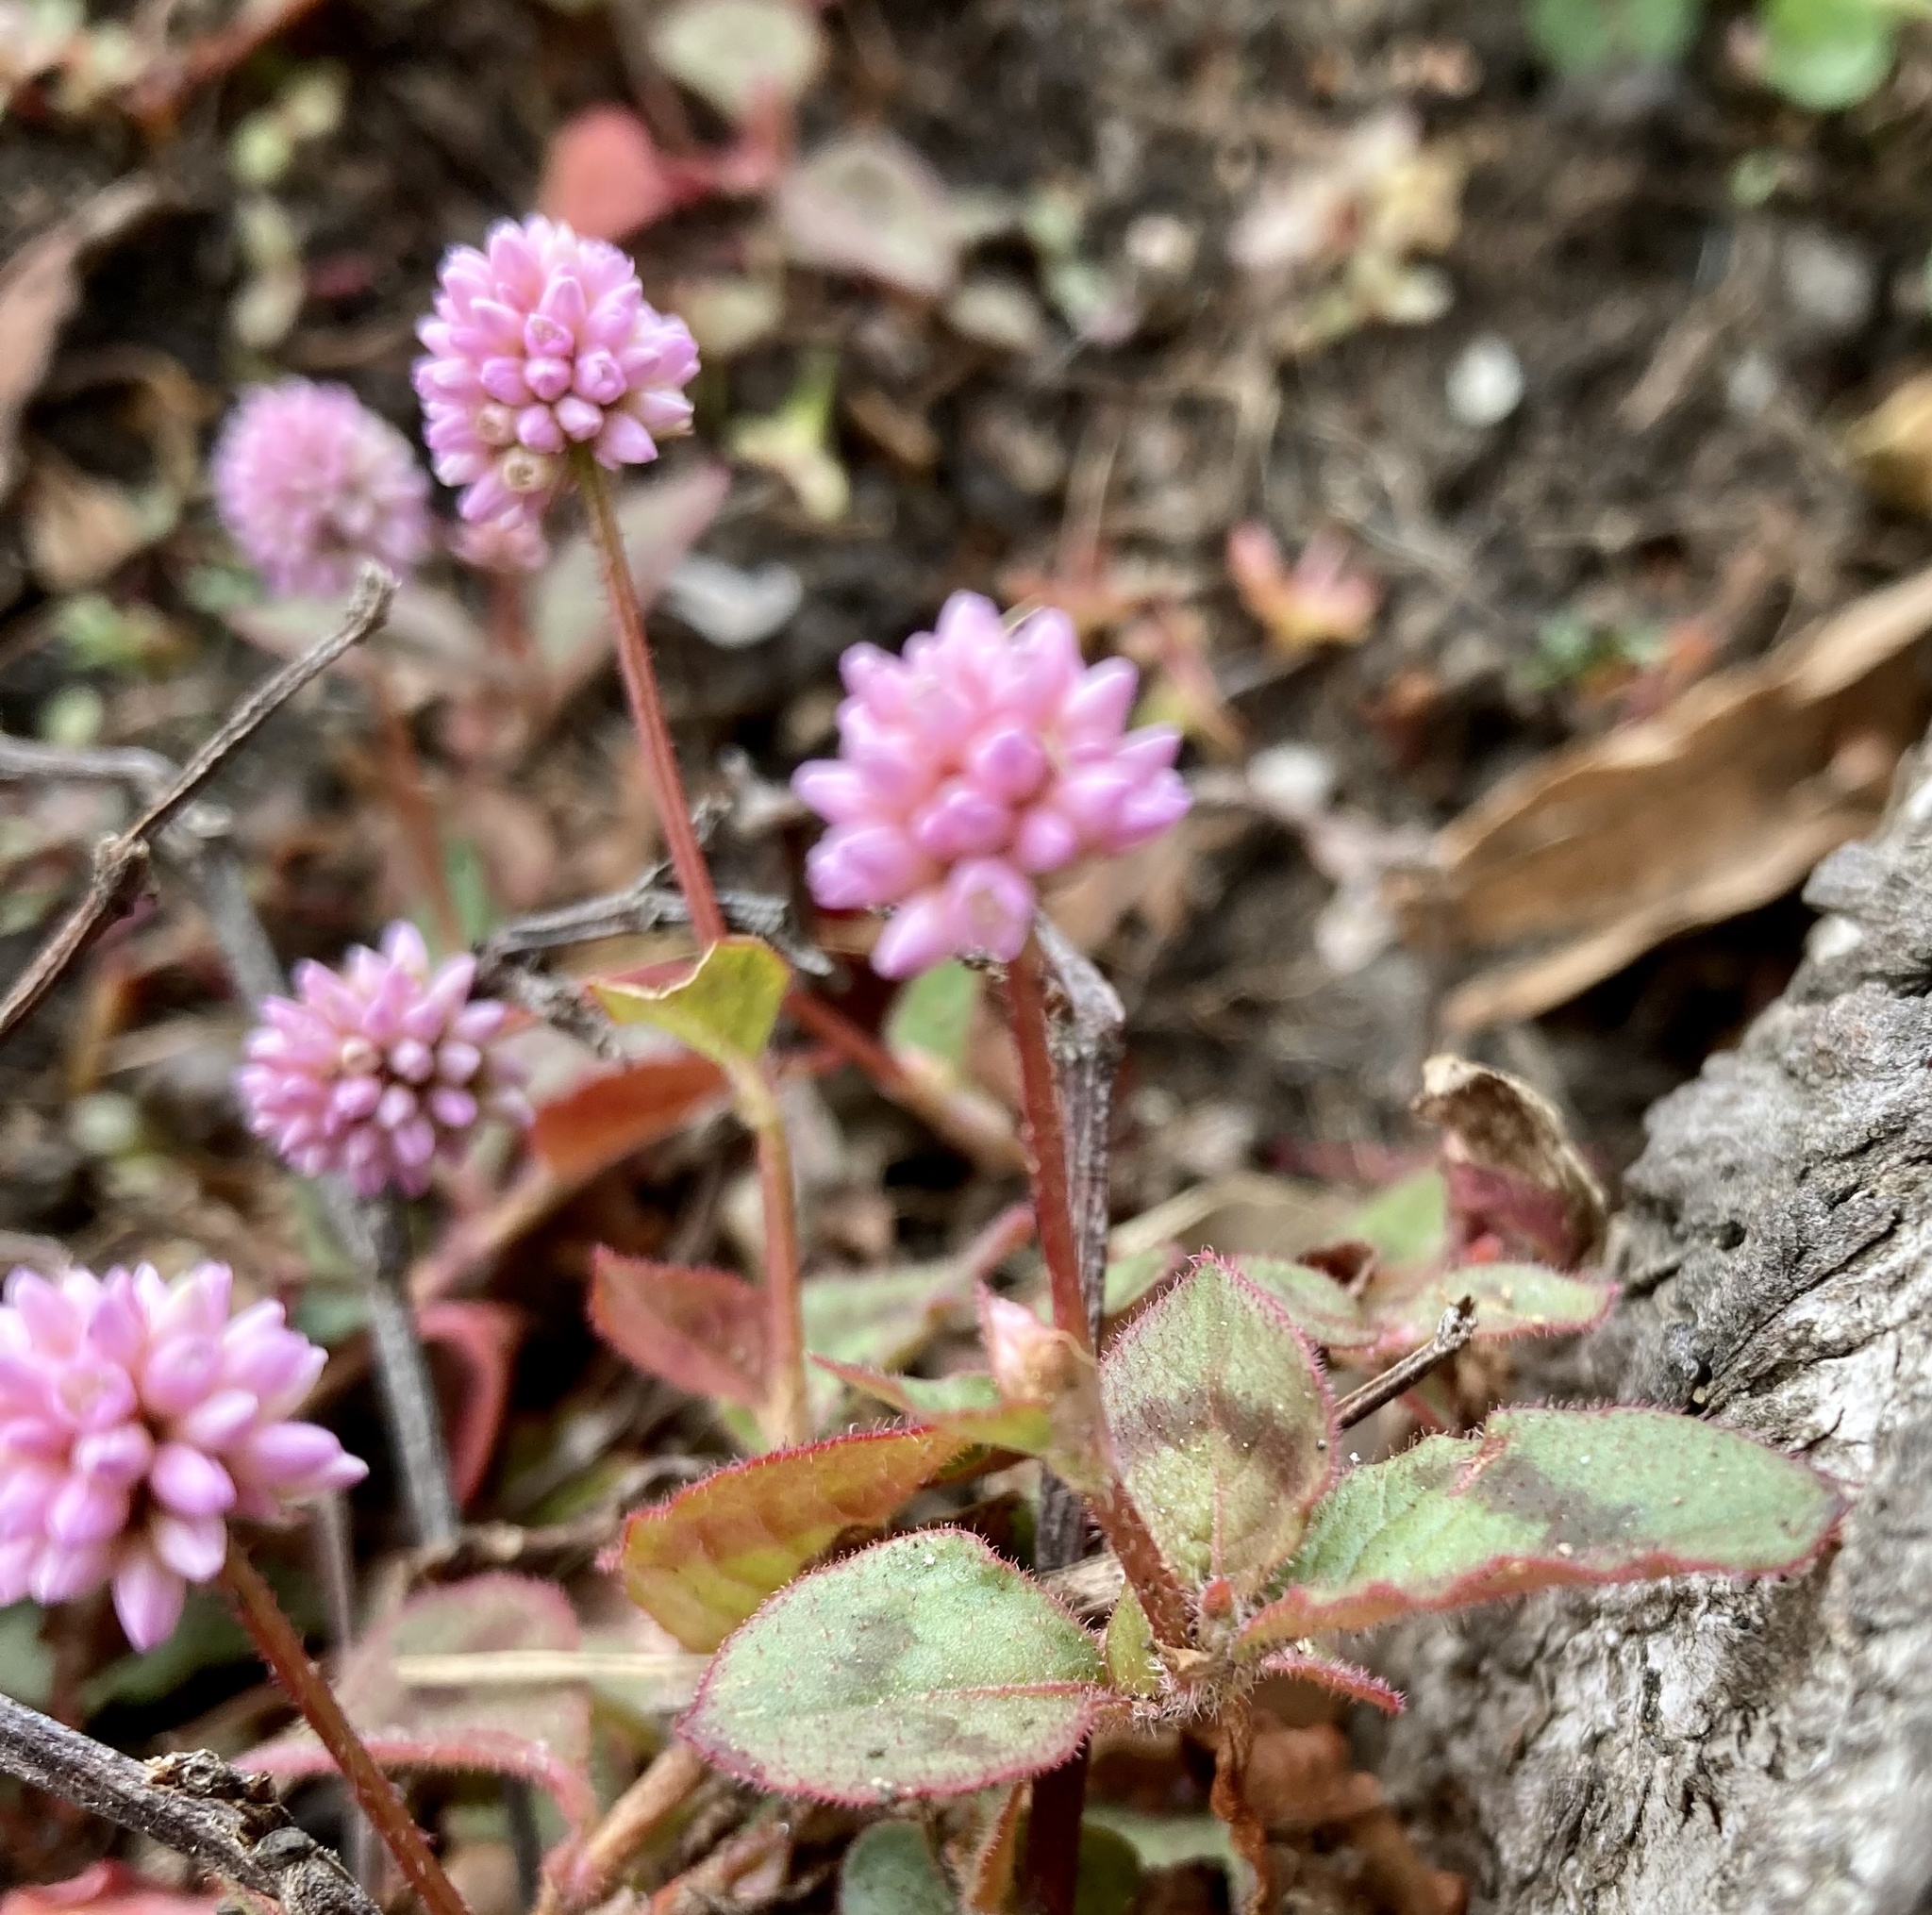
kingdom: Plantae
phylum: Tracheophyta
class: Magnoliopsida
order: Caryophyllales
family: Polygonaceae
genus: Persicaria
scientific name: Persicaria capitata
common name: Pinkhead smartweed
